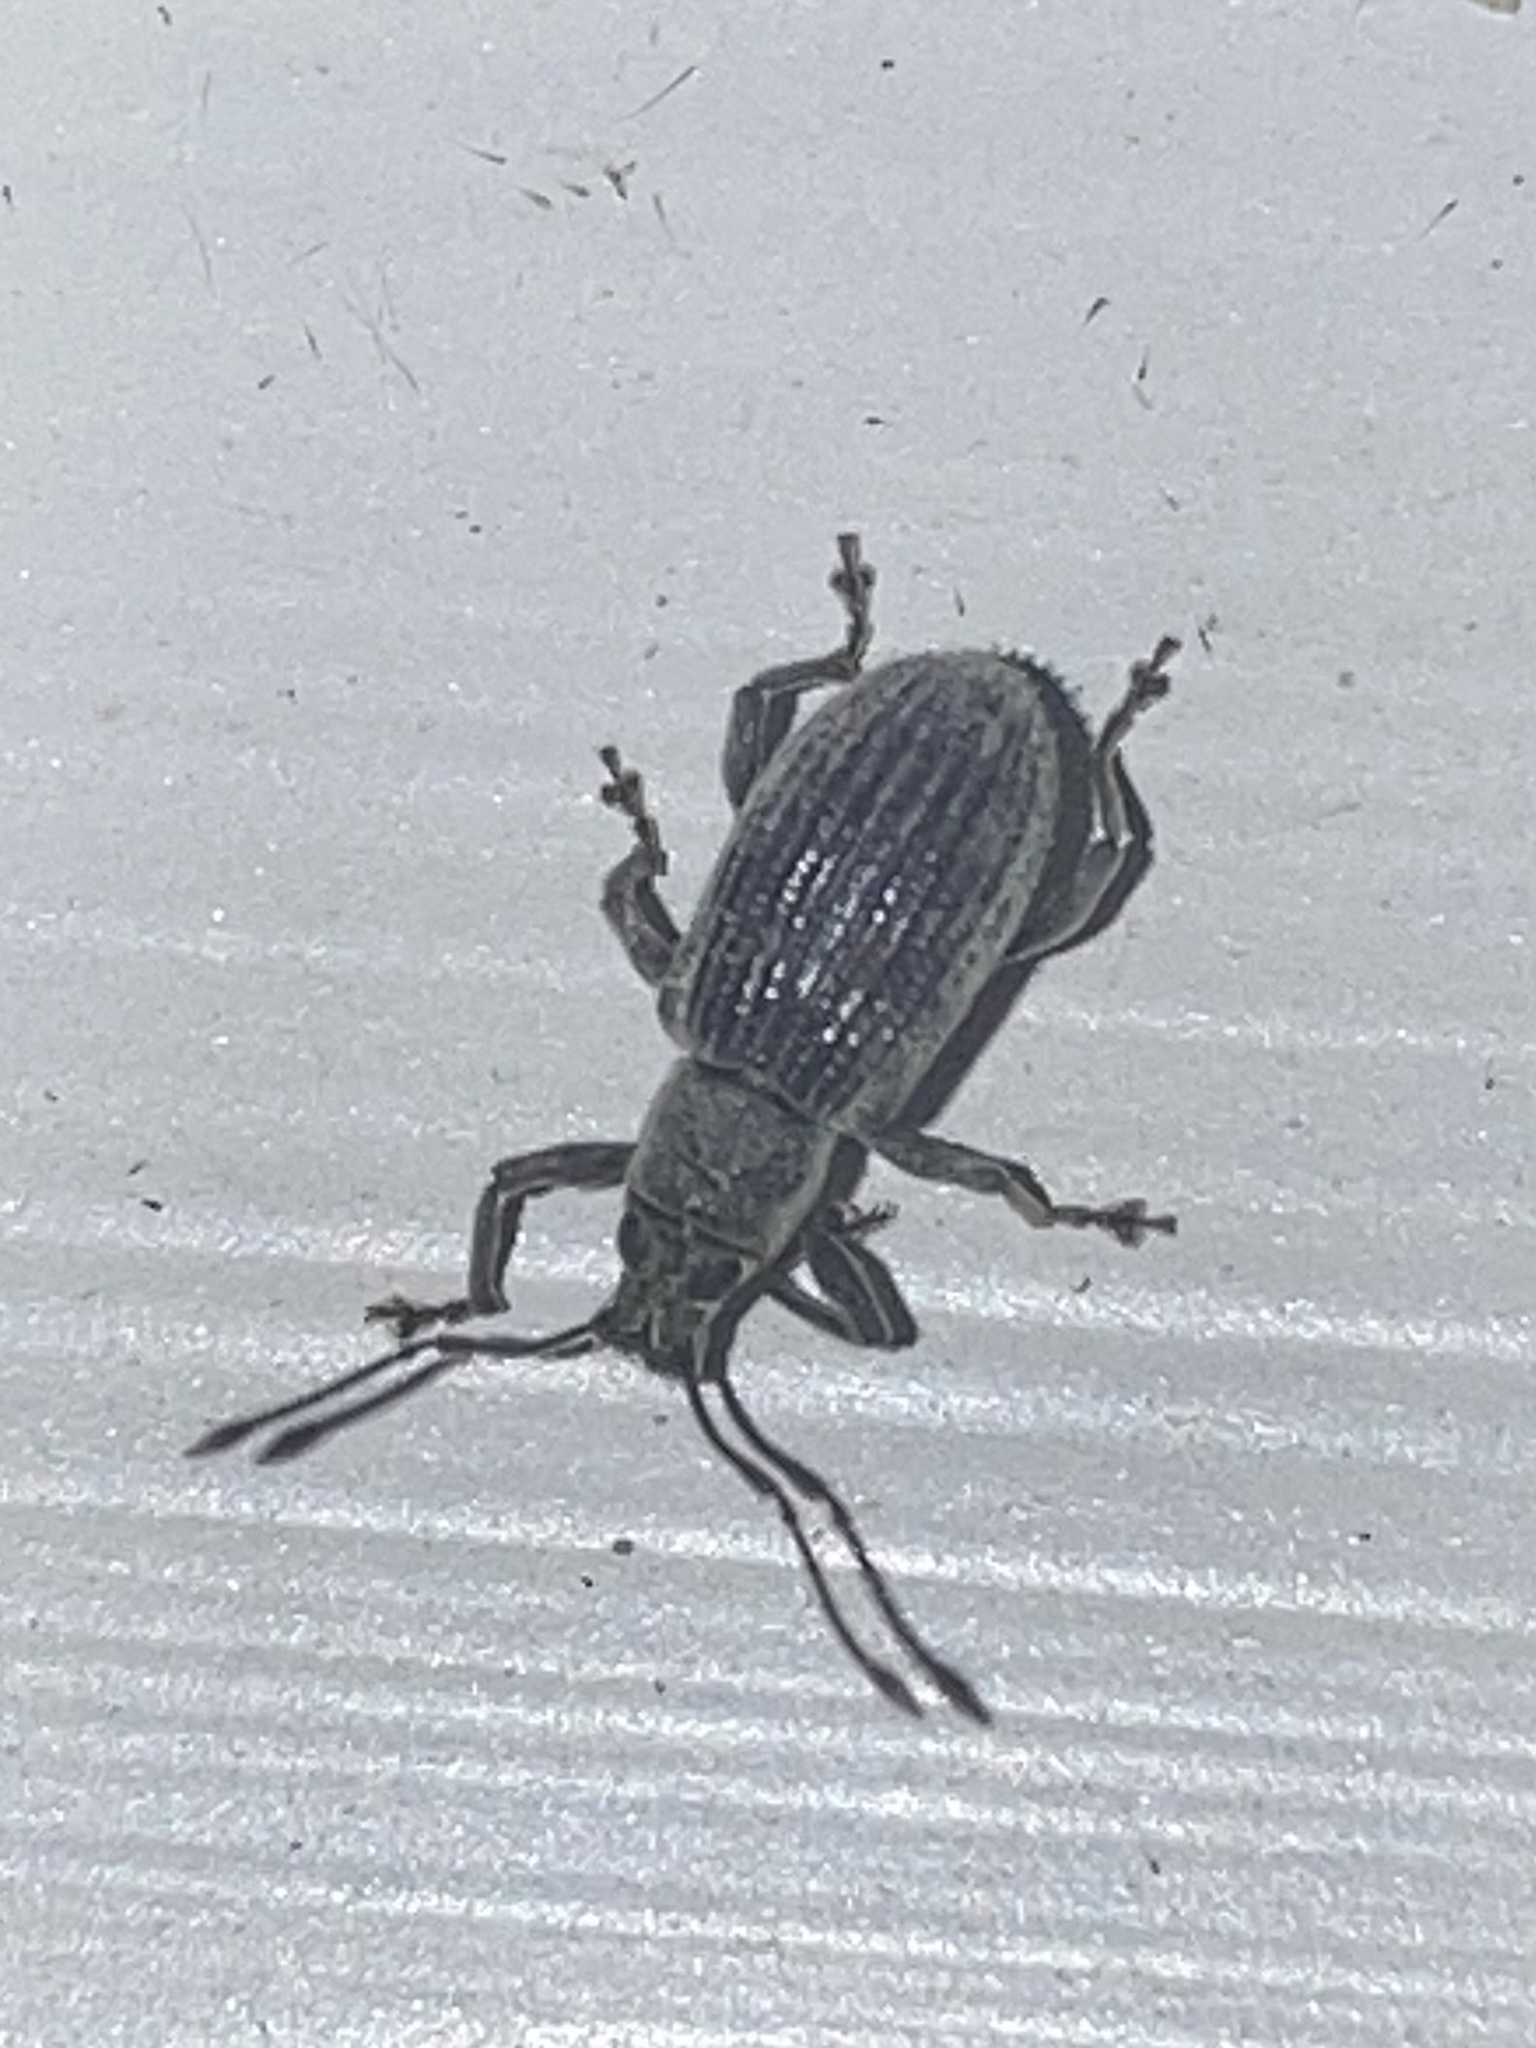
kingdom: Animalia
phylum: Arthropoda
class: Insecta
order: Coleoptera
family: Curculionidae
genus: Cyrtepistomus
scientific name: Cyrtepistomus castaneus
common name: Weevil
